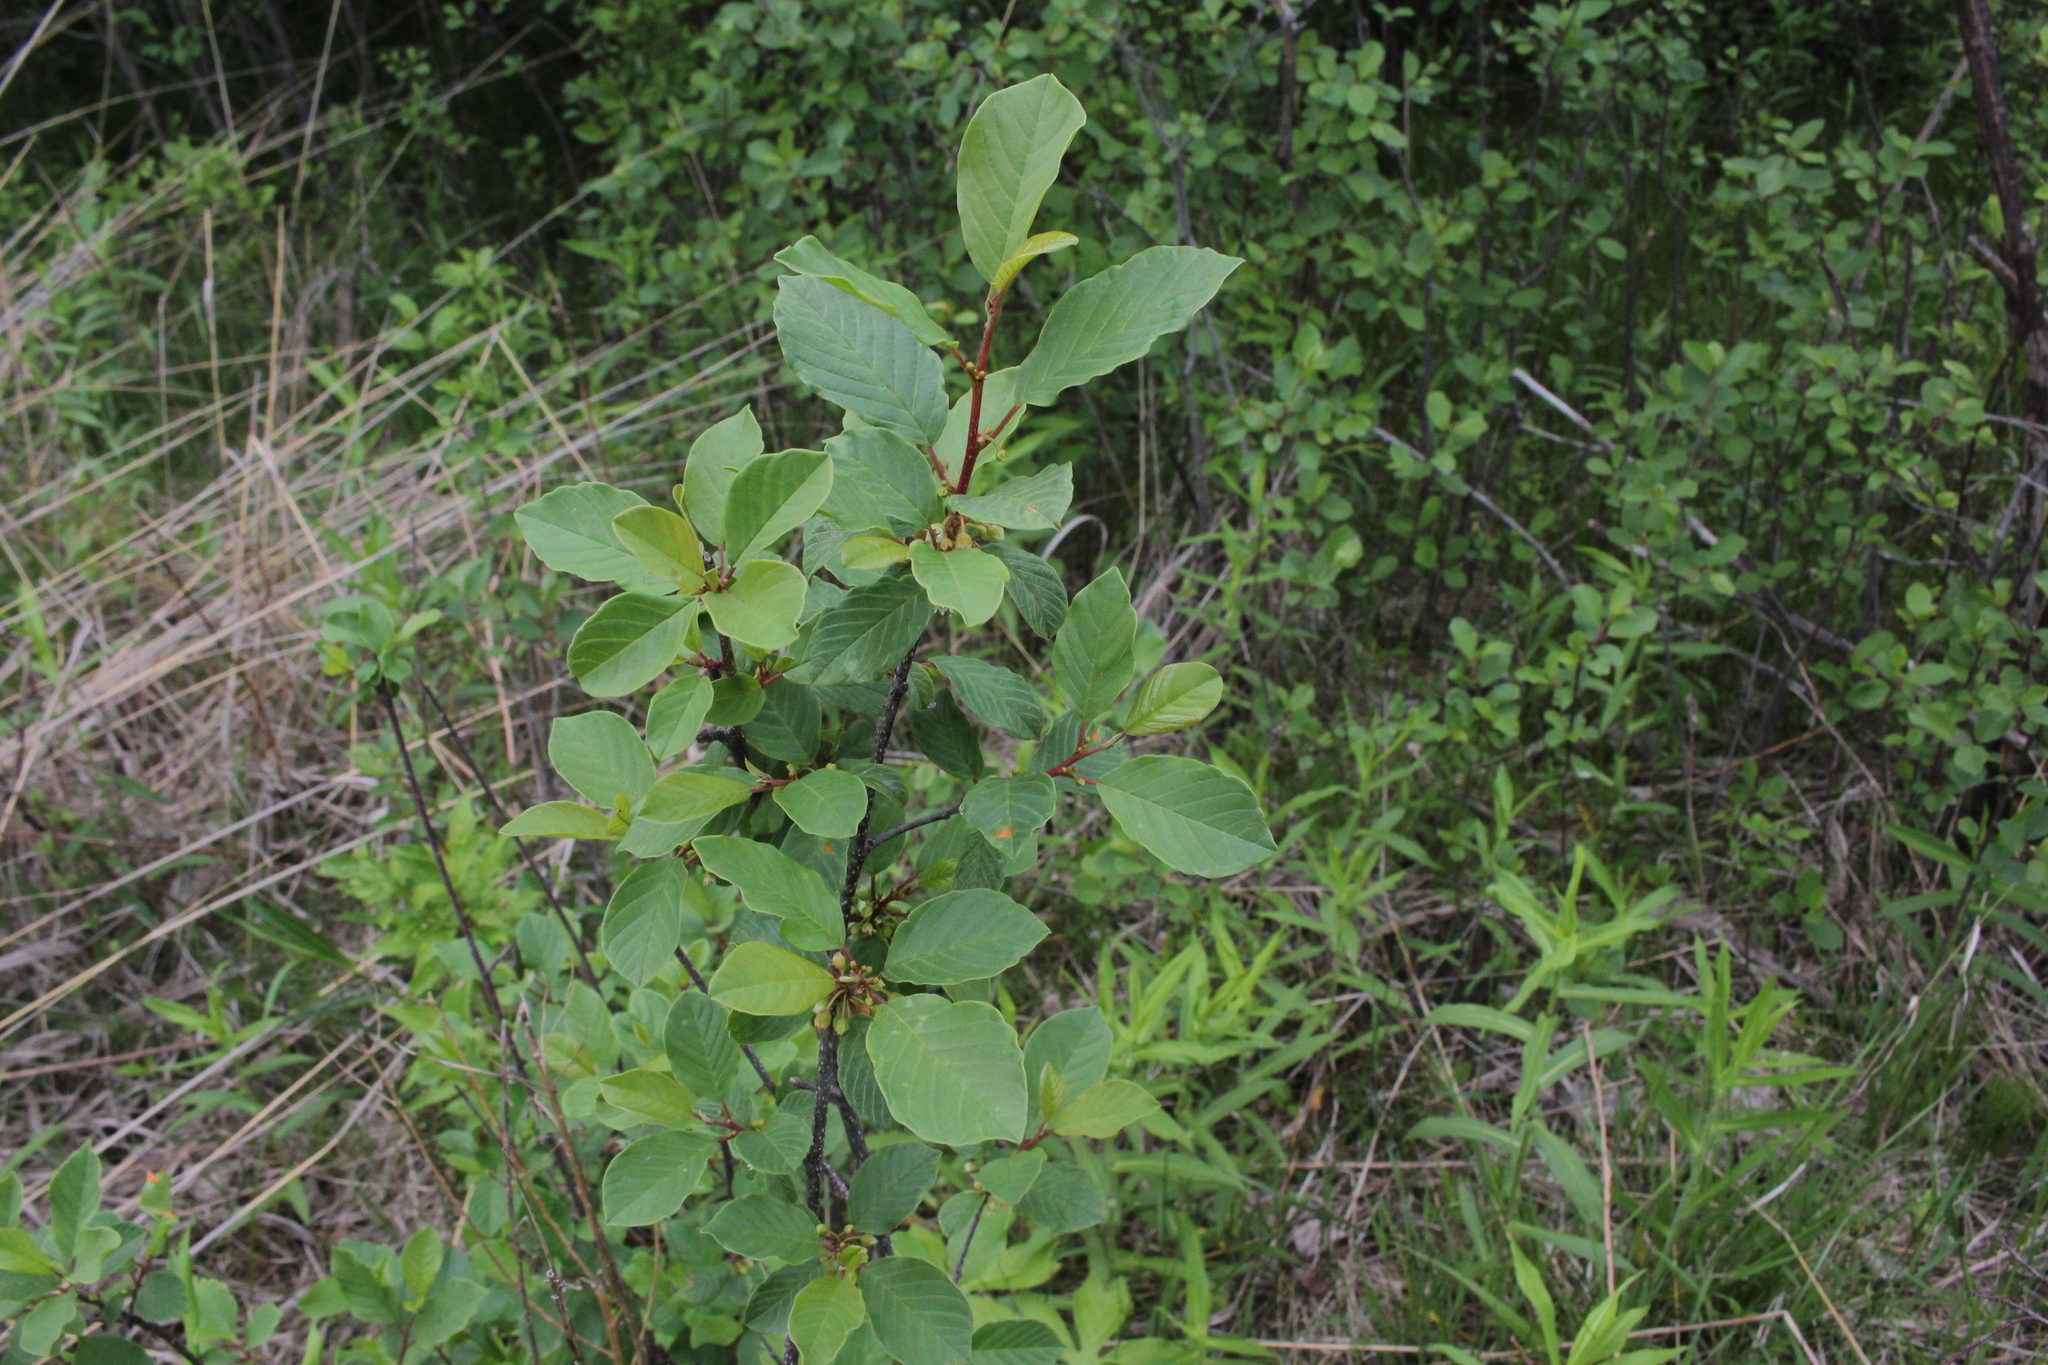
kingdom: Plantae
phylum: Tracheophyta
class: Magnoliopsida
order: Rosales
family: Rhamnaceae
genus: Frangula
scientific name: Frangula alnus
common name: Alder buckthorn
